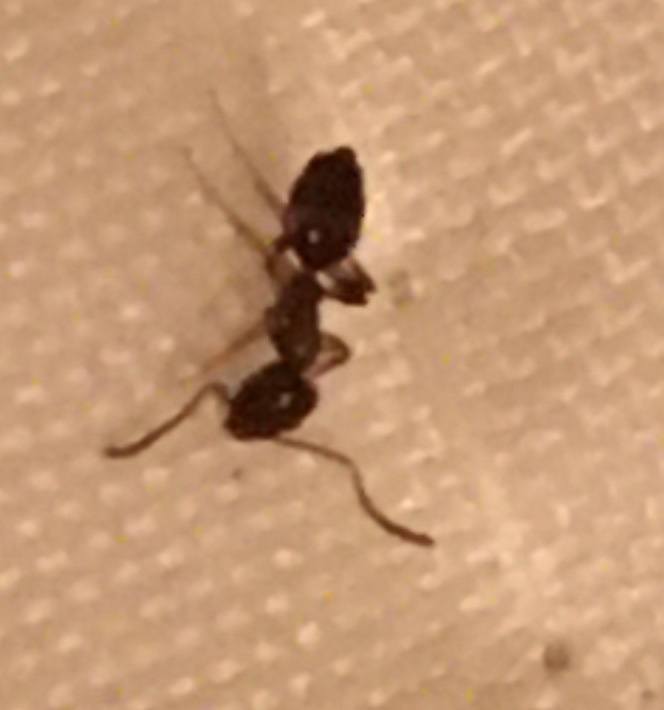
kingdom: Animalia
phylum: Arthropoda
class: Insecta
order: Hymenoptera
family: Formicidae
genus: Tapinoma
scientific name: Tapinoma sessile
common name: Odorous house ant
